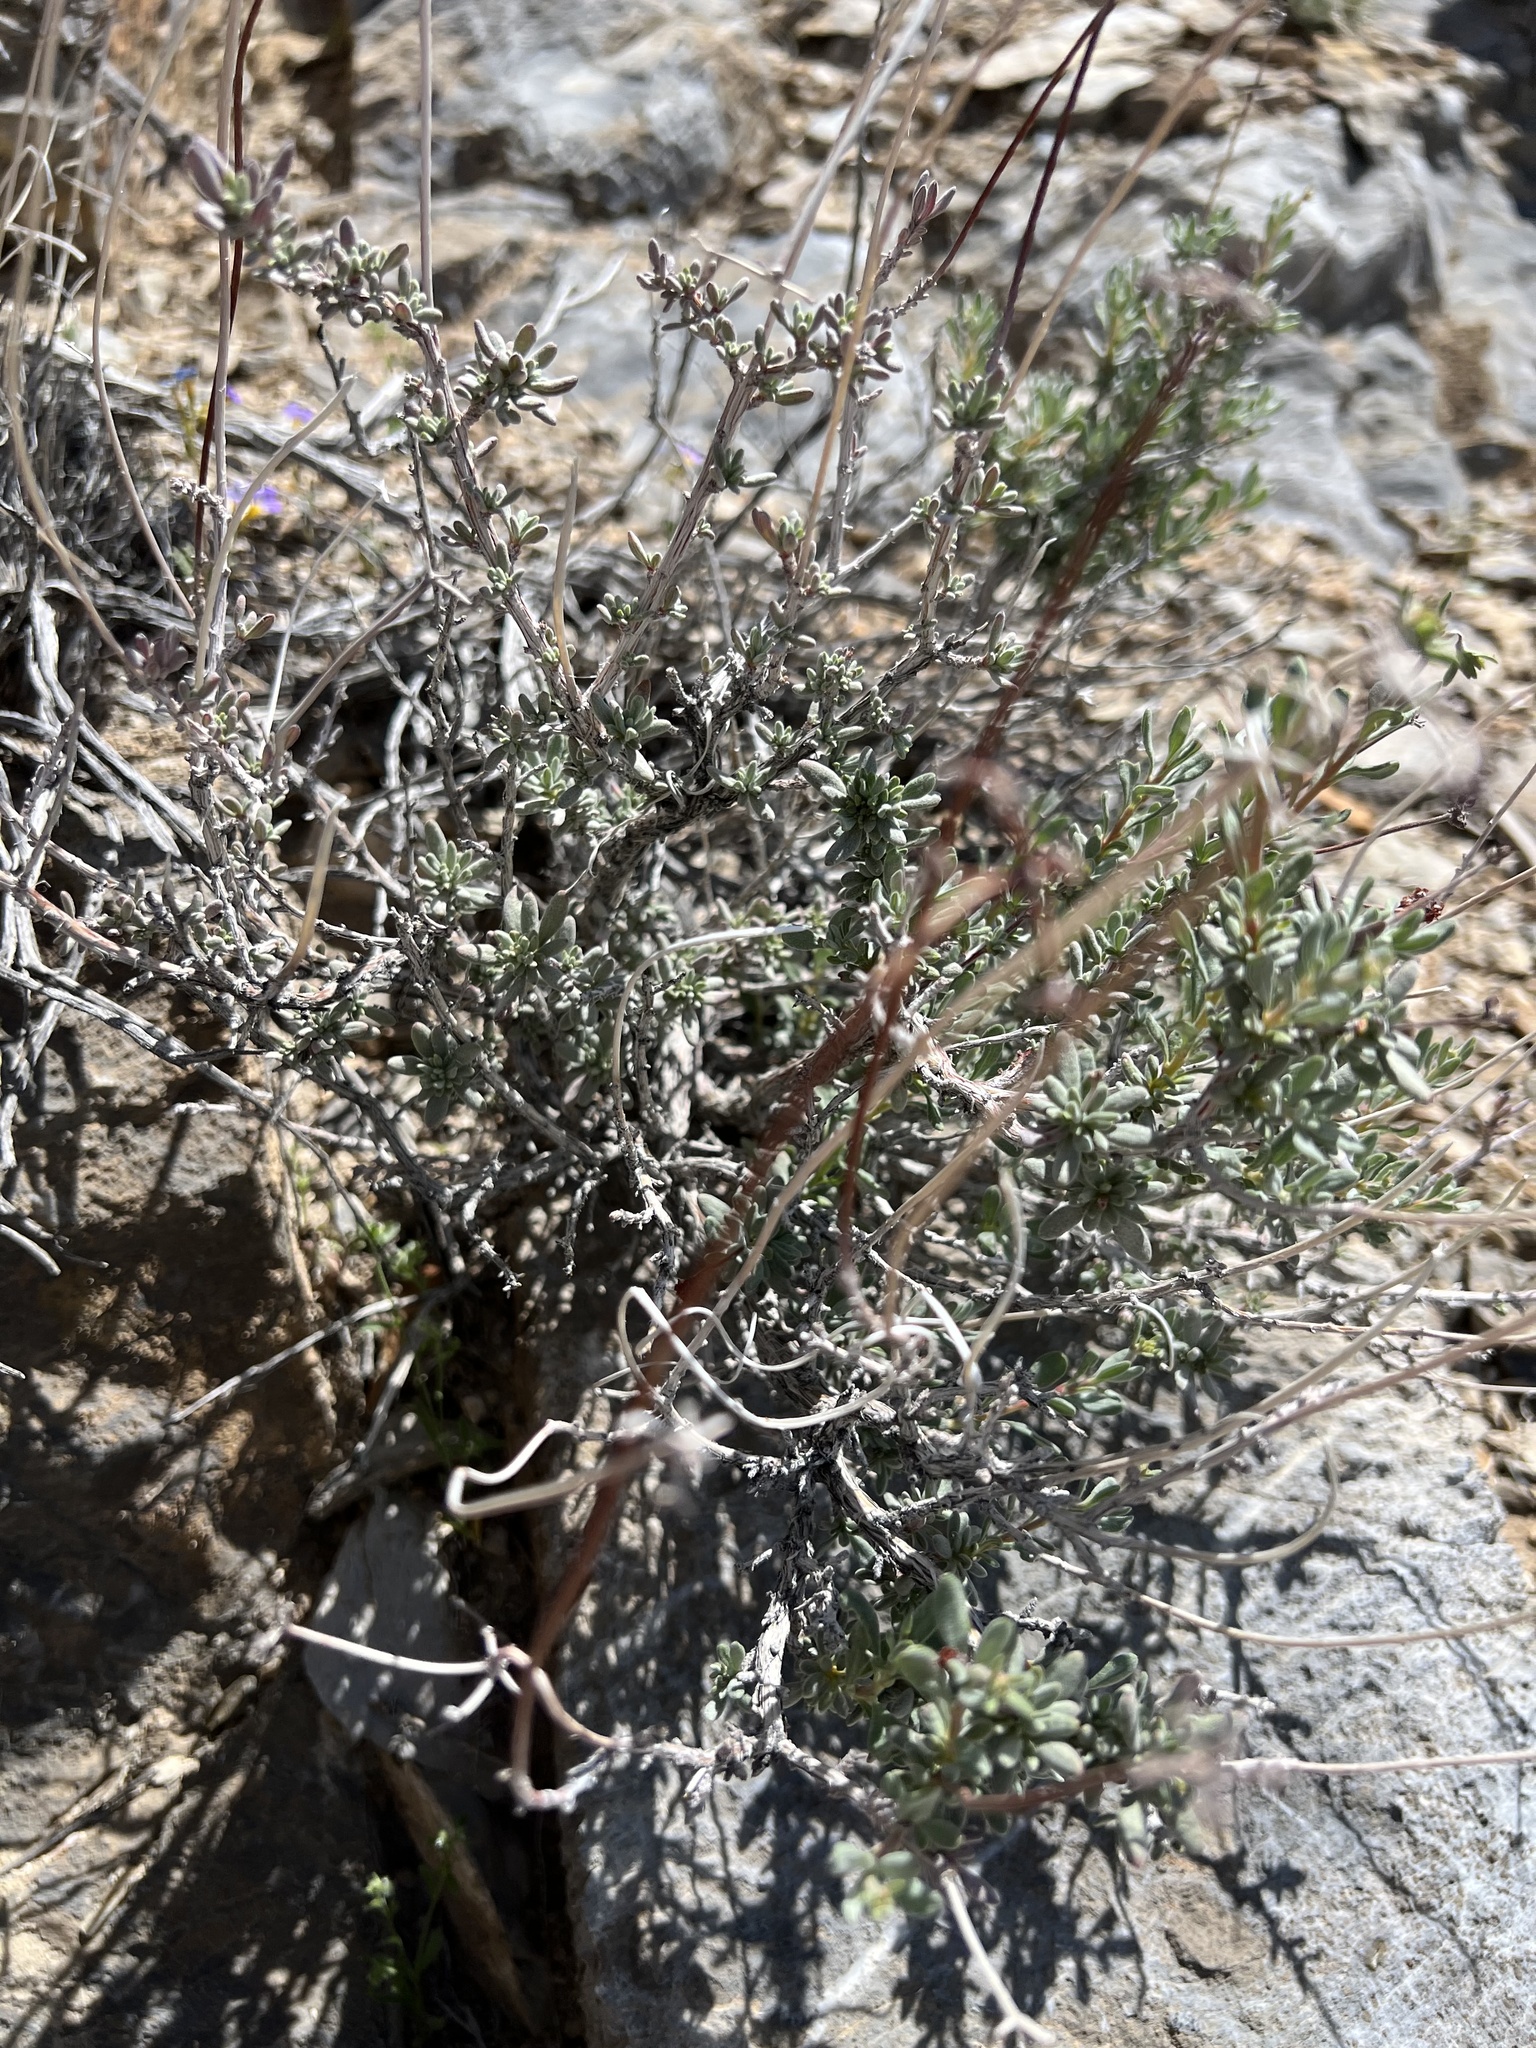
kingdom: Plantae
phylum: Tracheophyta
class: Magnoliopsida
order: Caryophyllales
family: Polygonaceae
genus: Eriogonum
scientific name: Eriogonum fasciculatum
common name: California wild buckwheat
